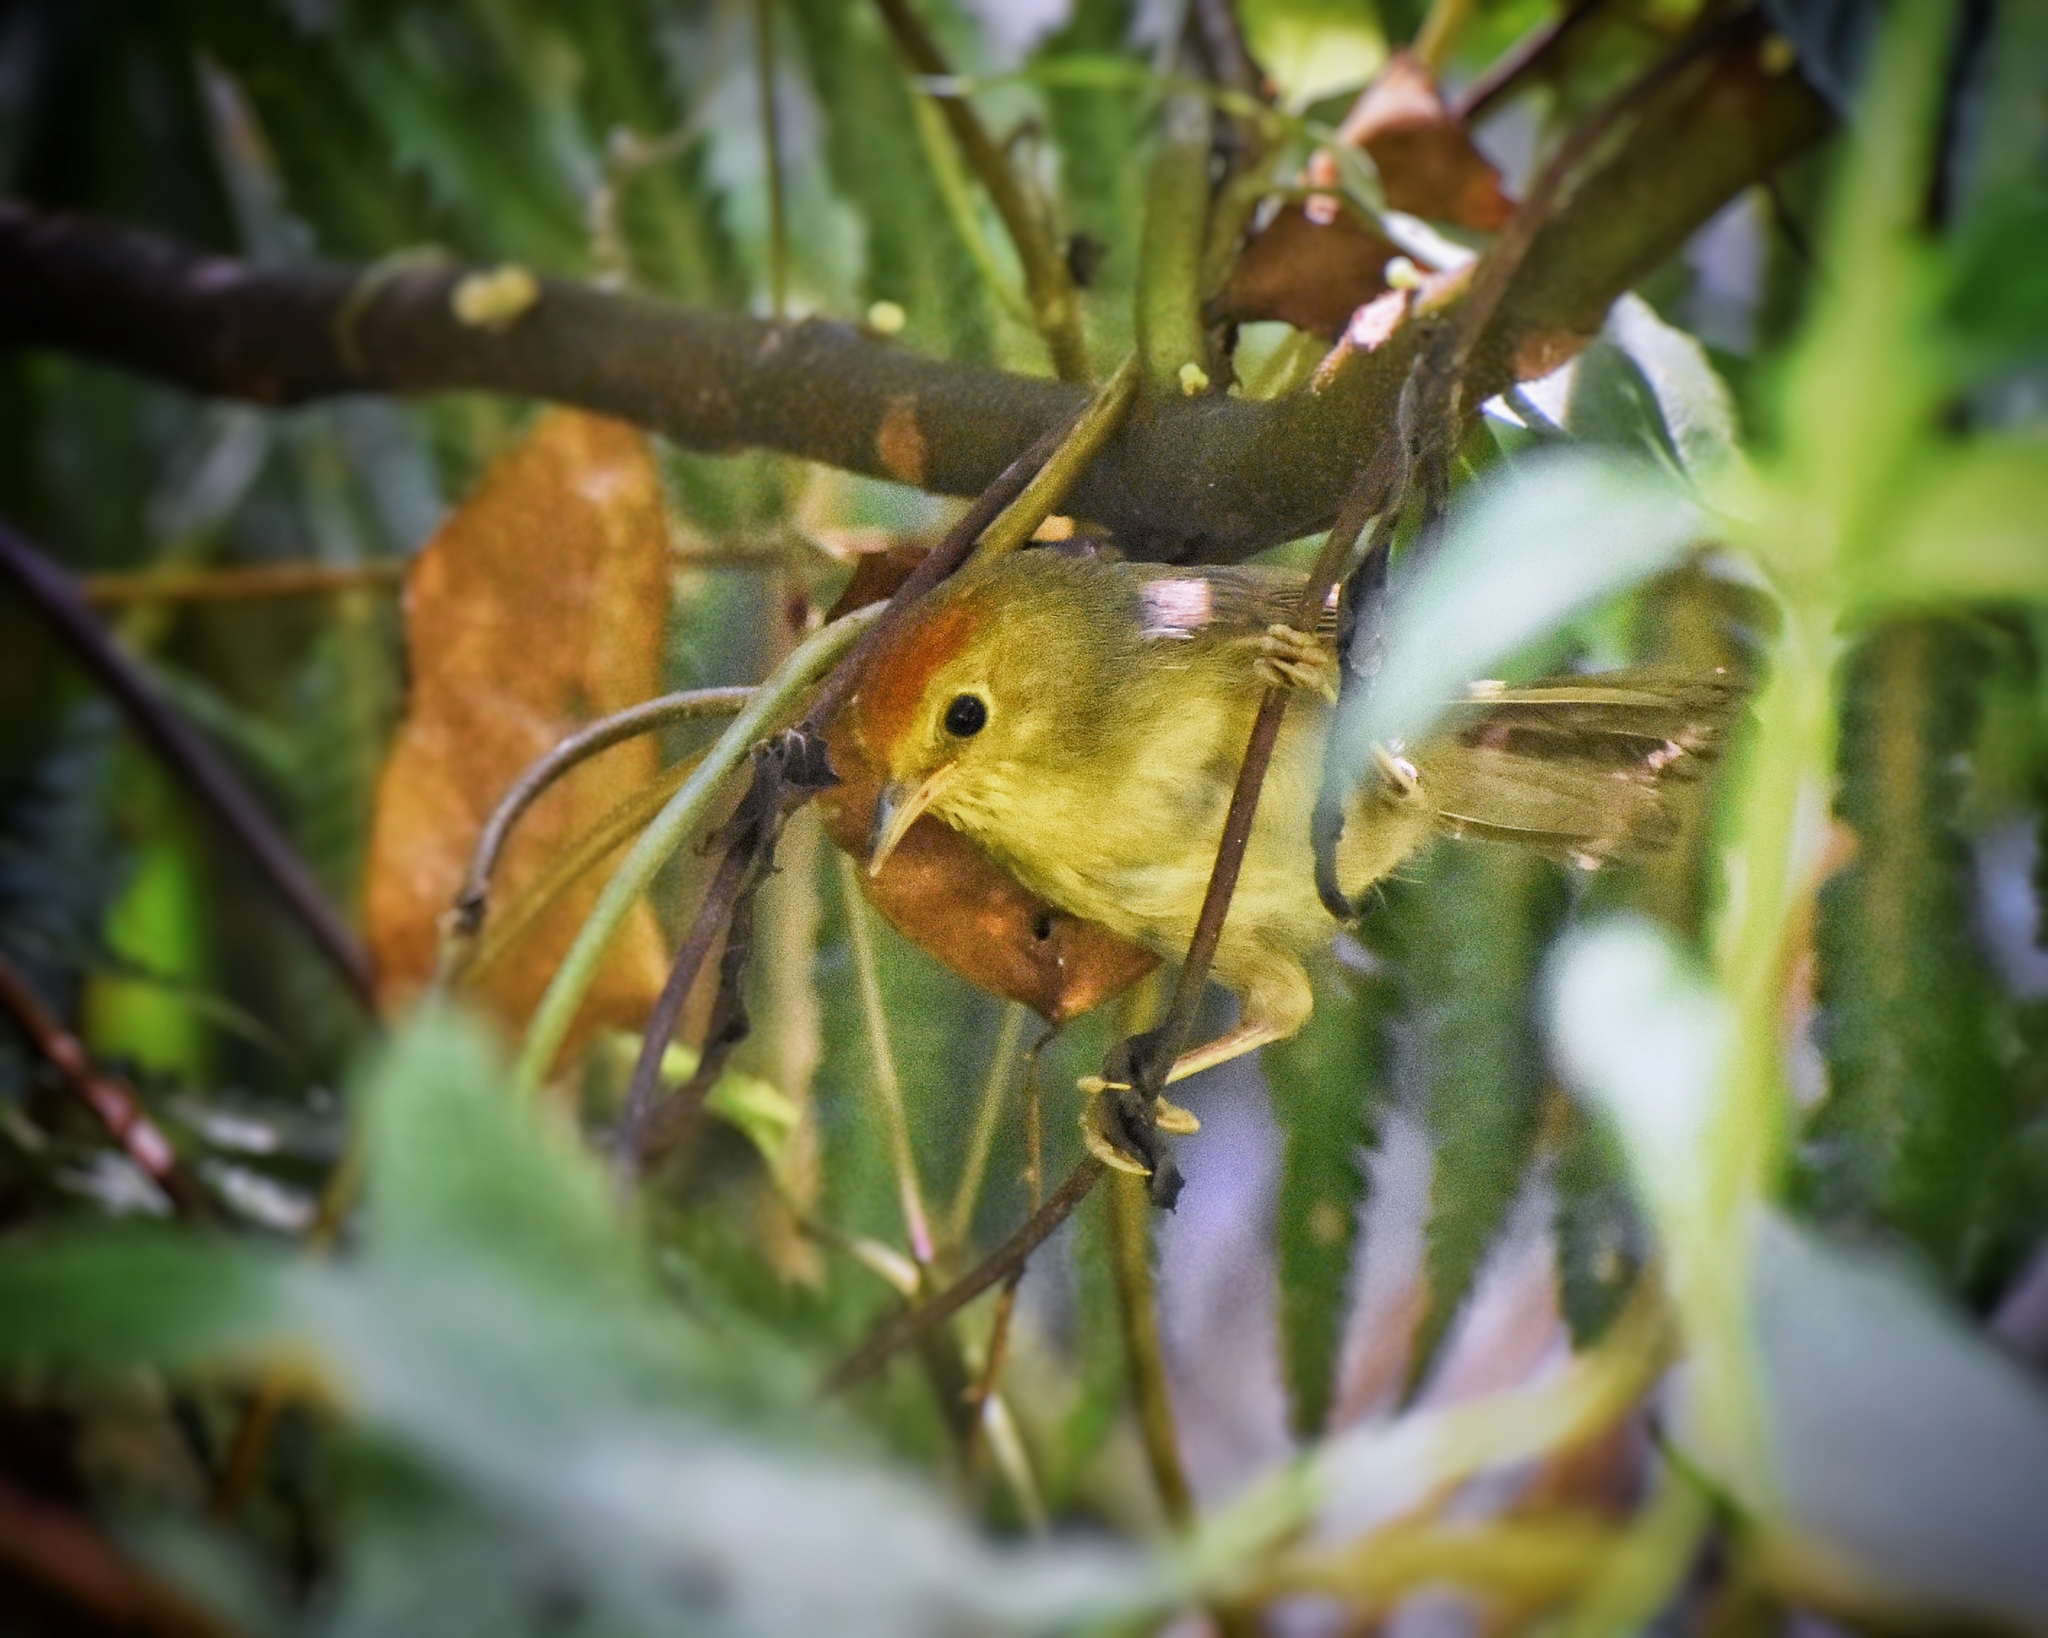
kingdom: Animalia
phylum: Chordata
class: Aves
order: Passeriformes
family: Timaliidae
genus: Stachyridopsis
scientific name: Stachyridopsis ruficeps
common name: Rufous-capped babbler
